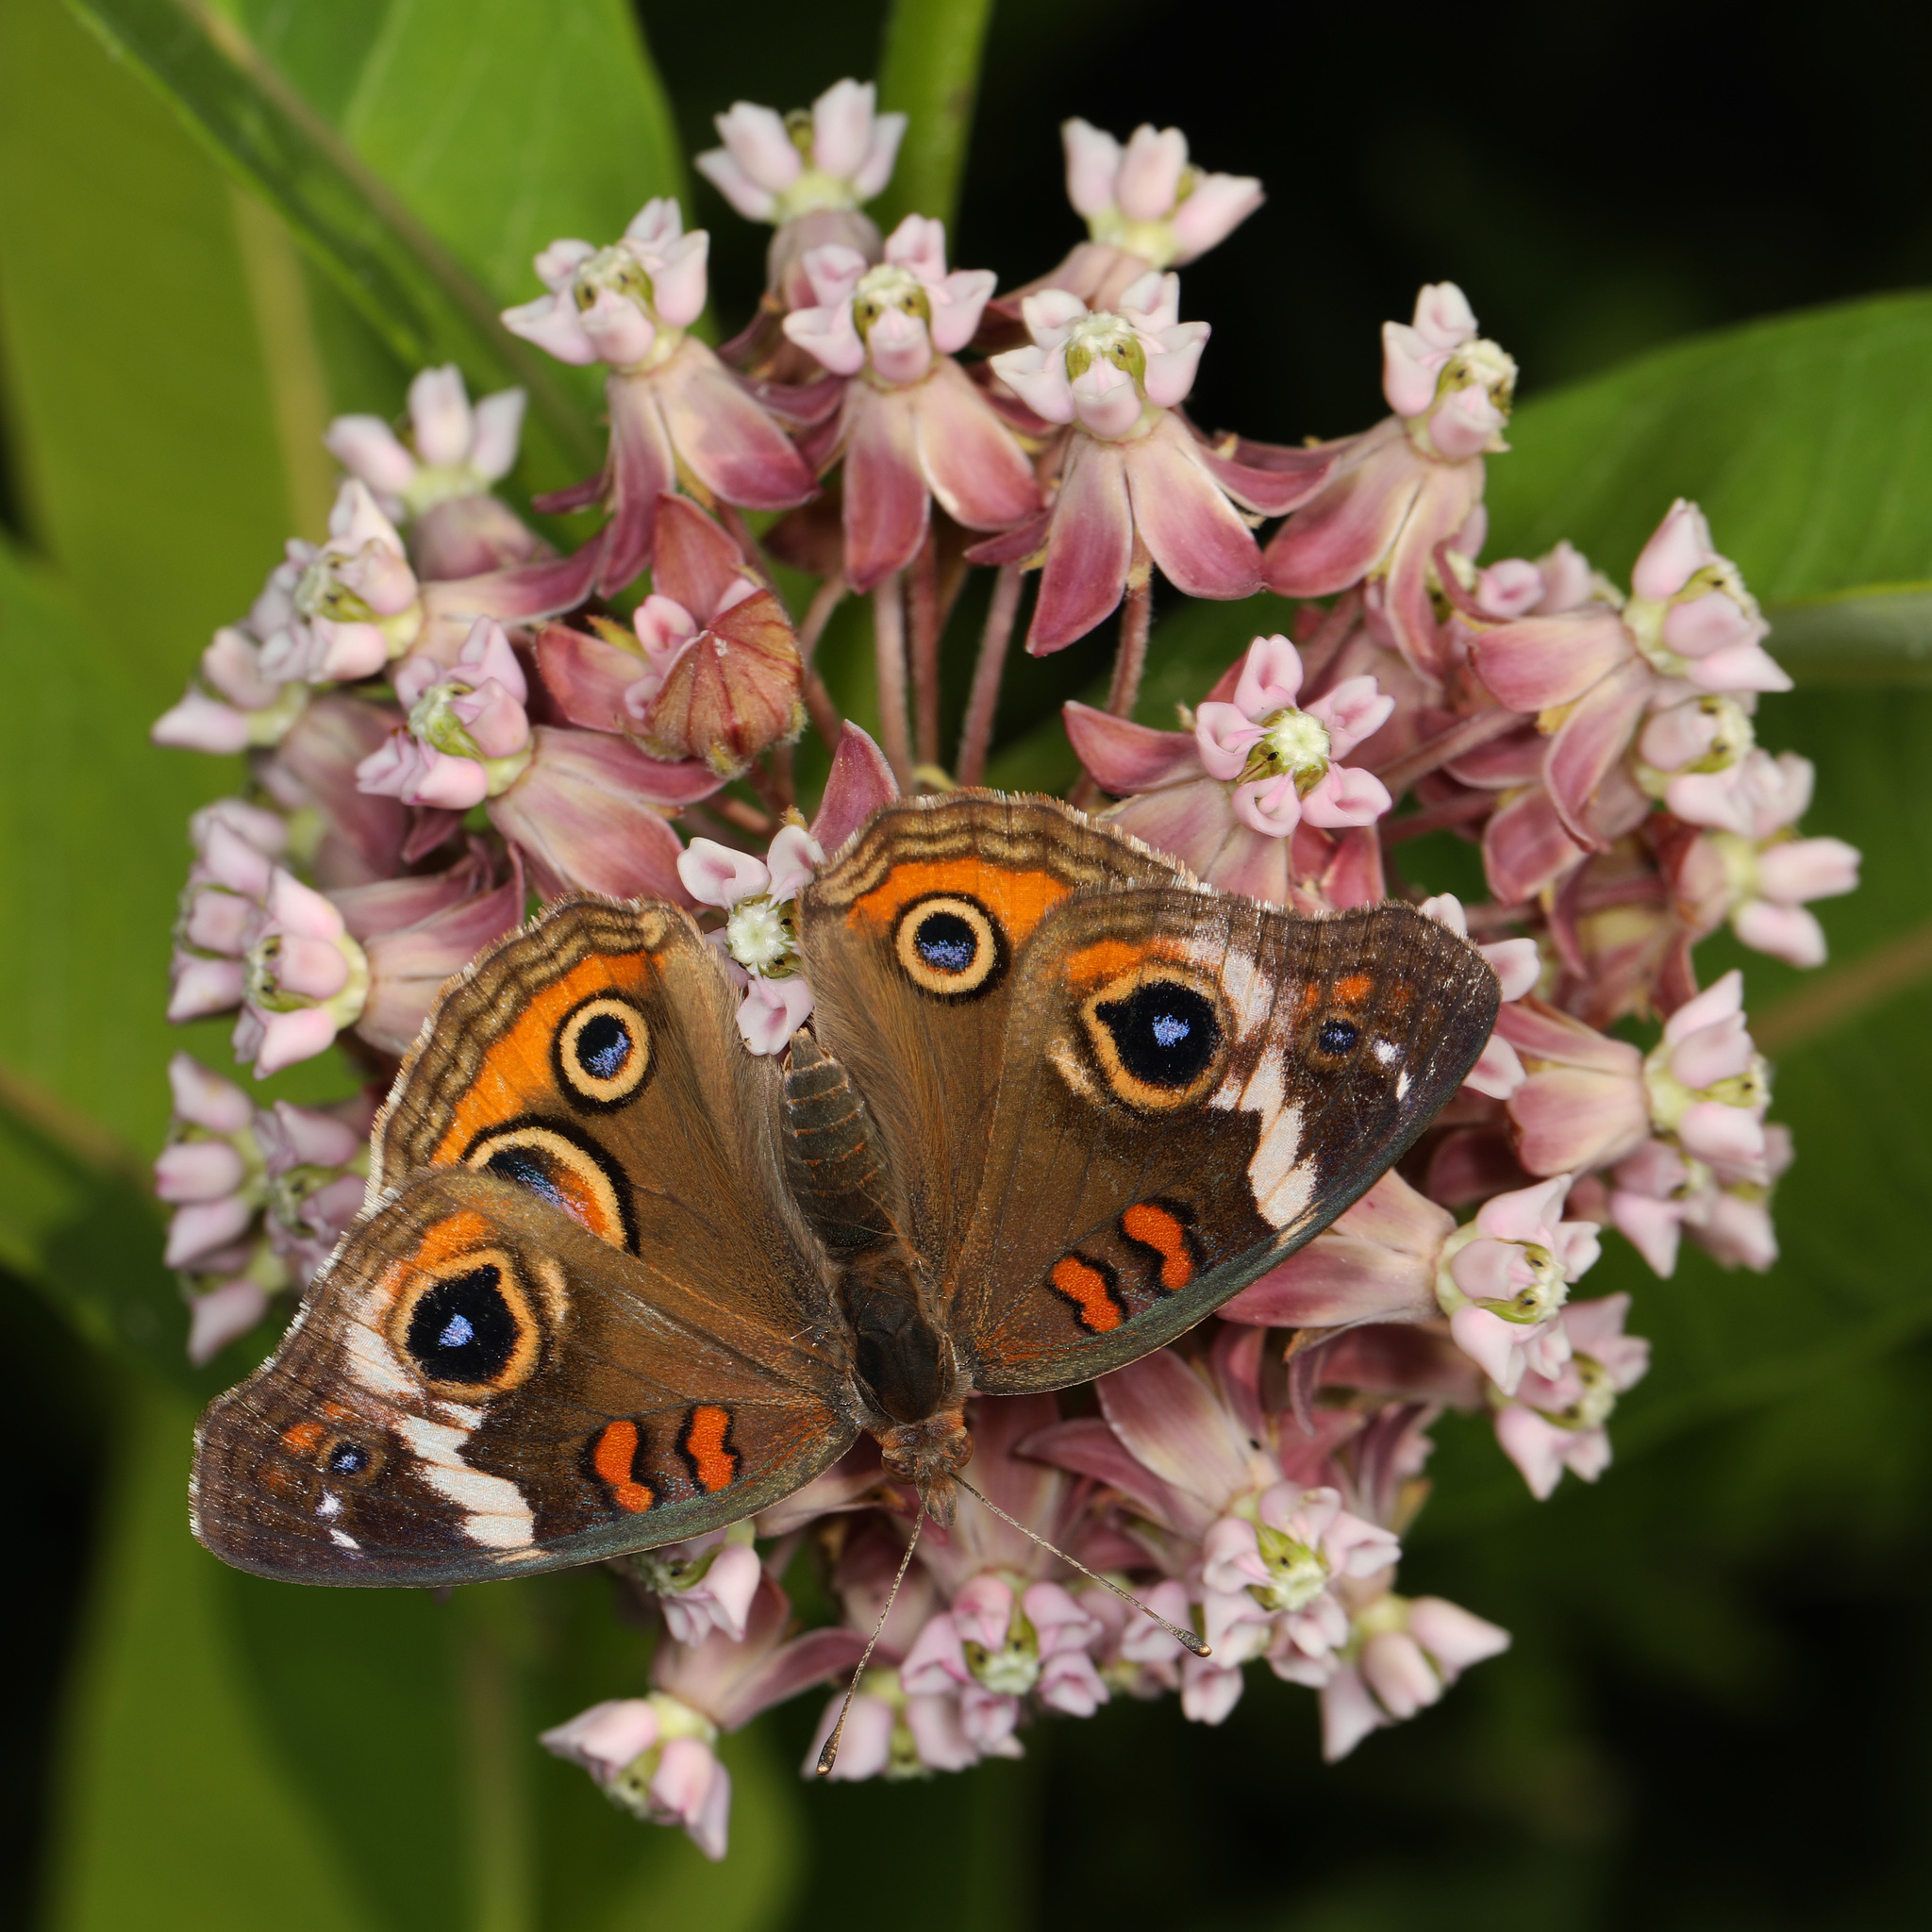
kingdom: Animalia
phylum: Arthropoda
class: Insecta
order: Lepidoptera
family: Nymphalidae
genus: Junonia
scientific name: Junonia coenia
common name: Common buckeye
